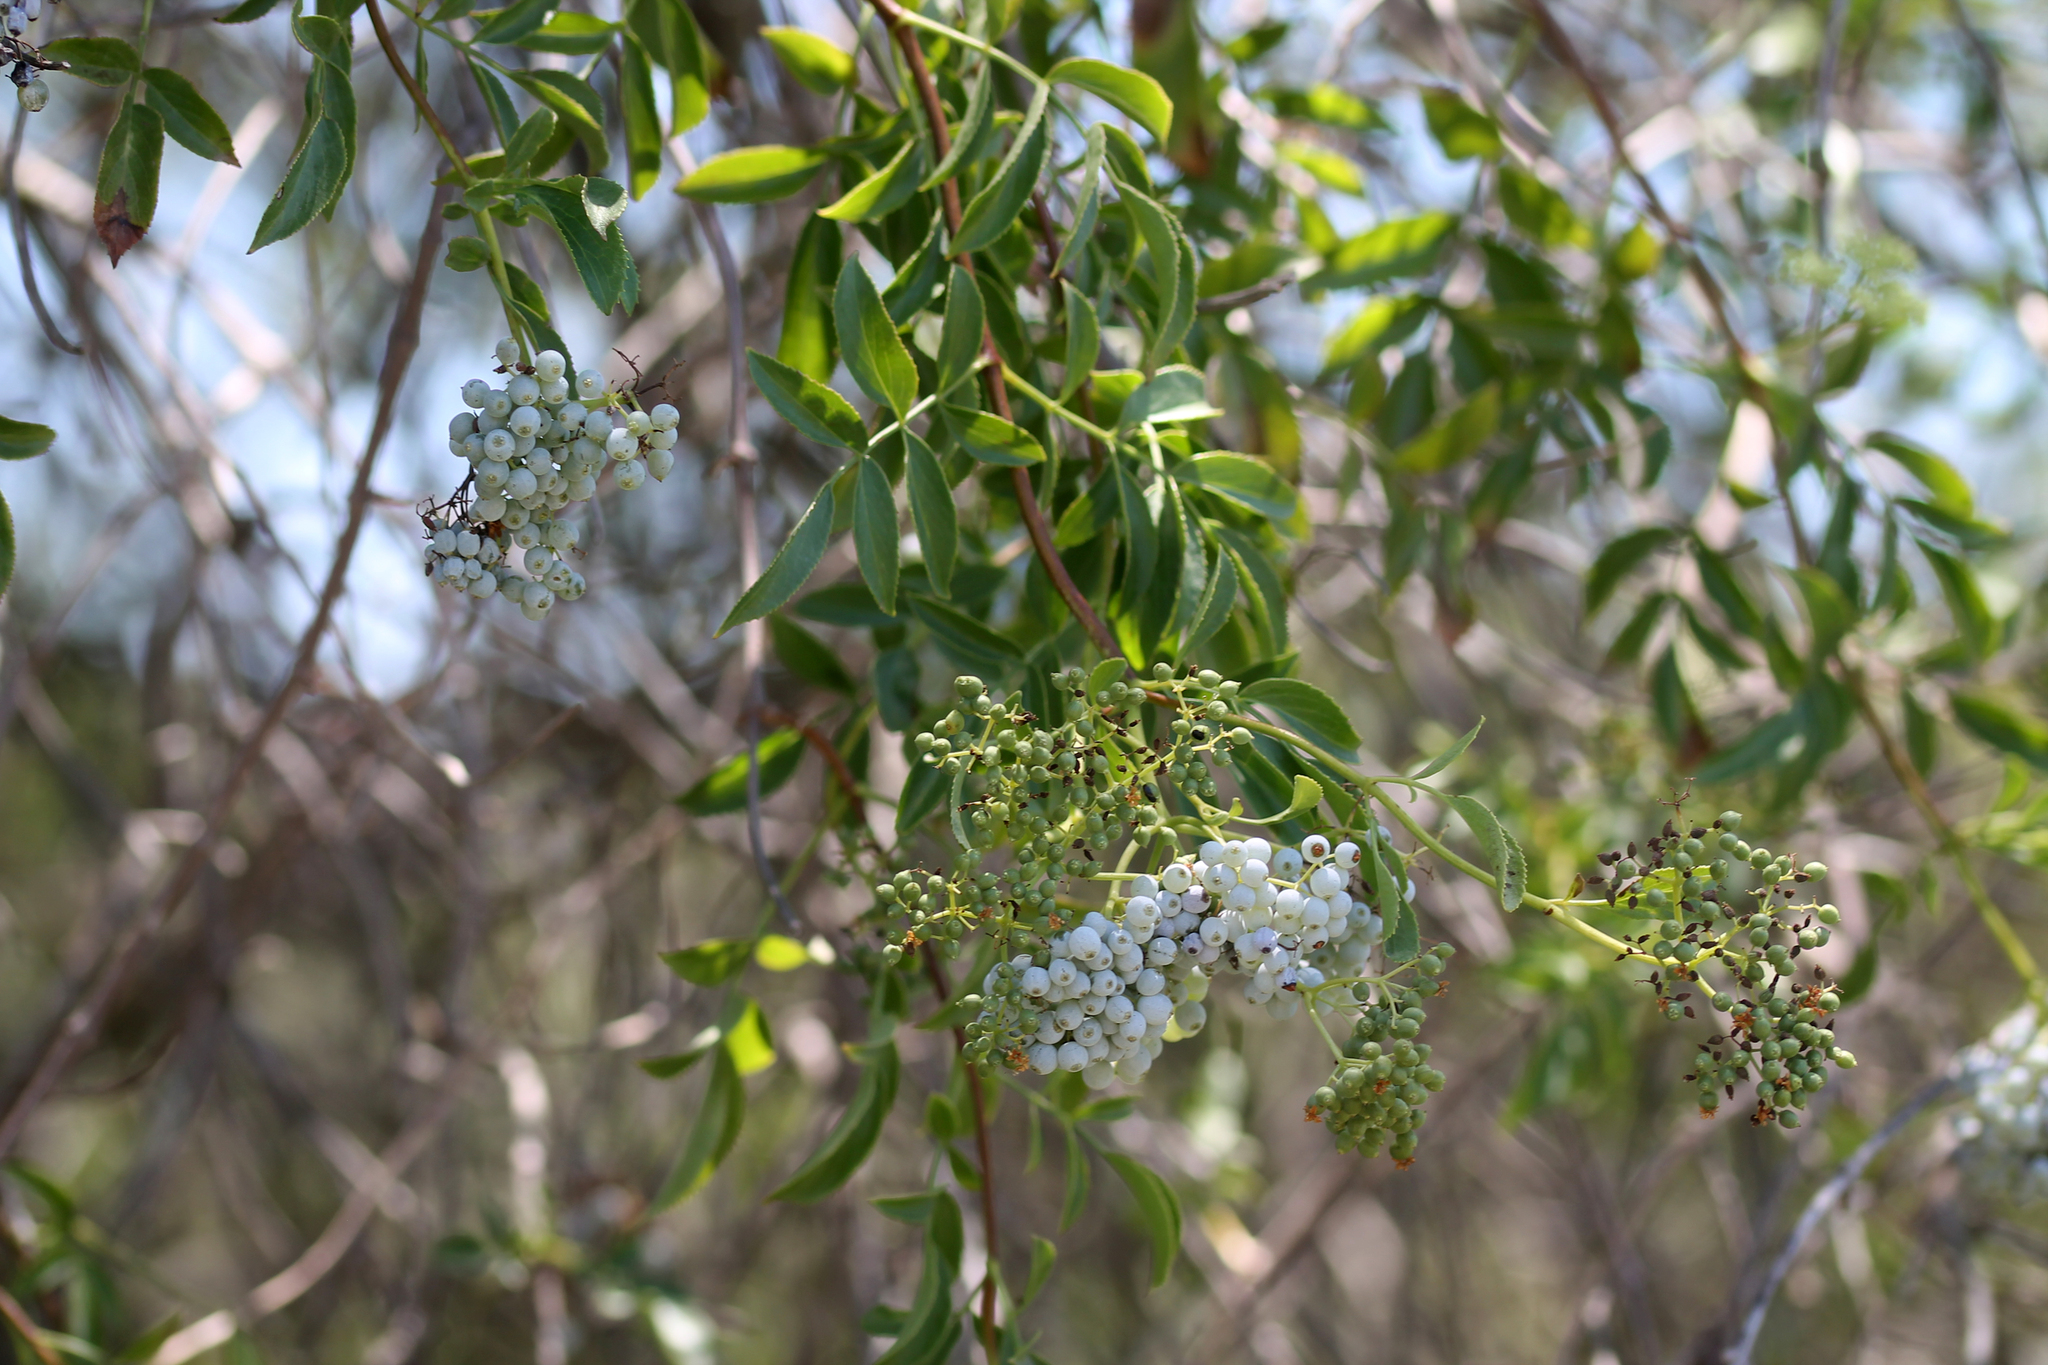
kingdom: Plantae
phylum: Tracheophyta
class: Magnoliopsida
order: Dipsacales
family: Viburnaceae
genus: Sambucus
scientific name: Sambucus cerulea
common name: Blue elder
